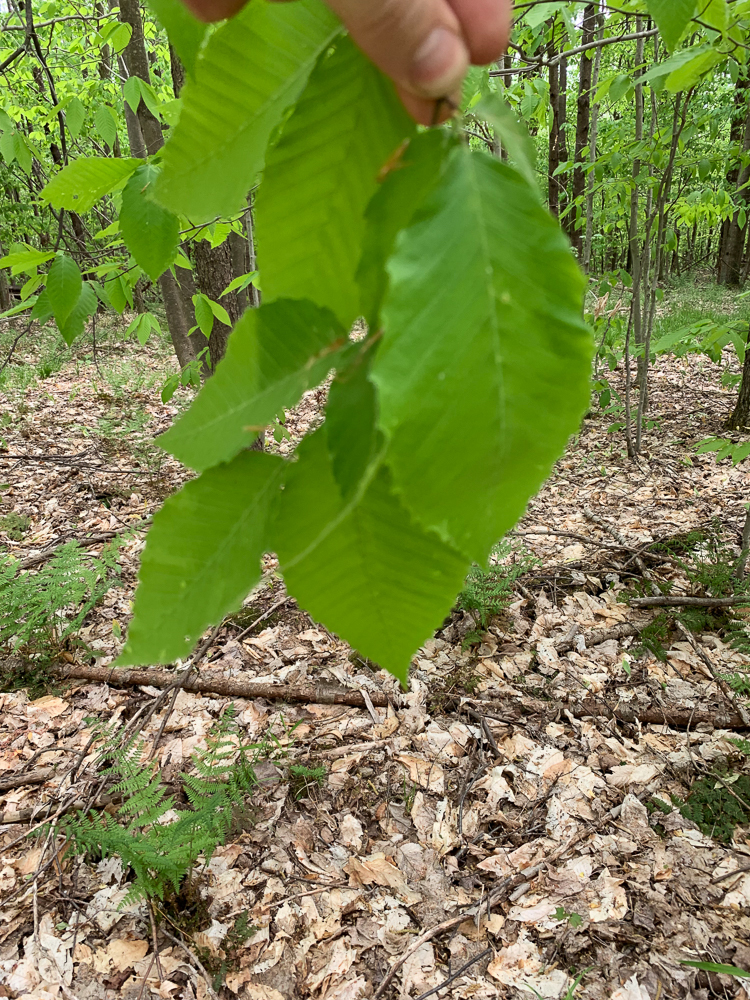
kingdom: Plantae
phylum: Tracheophyta
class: Magnoliopsida
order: Fagales
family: Fagaceae
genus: Fagus
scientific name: Fagus grandifolia
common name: American beech
